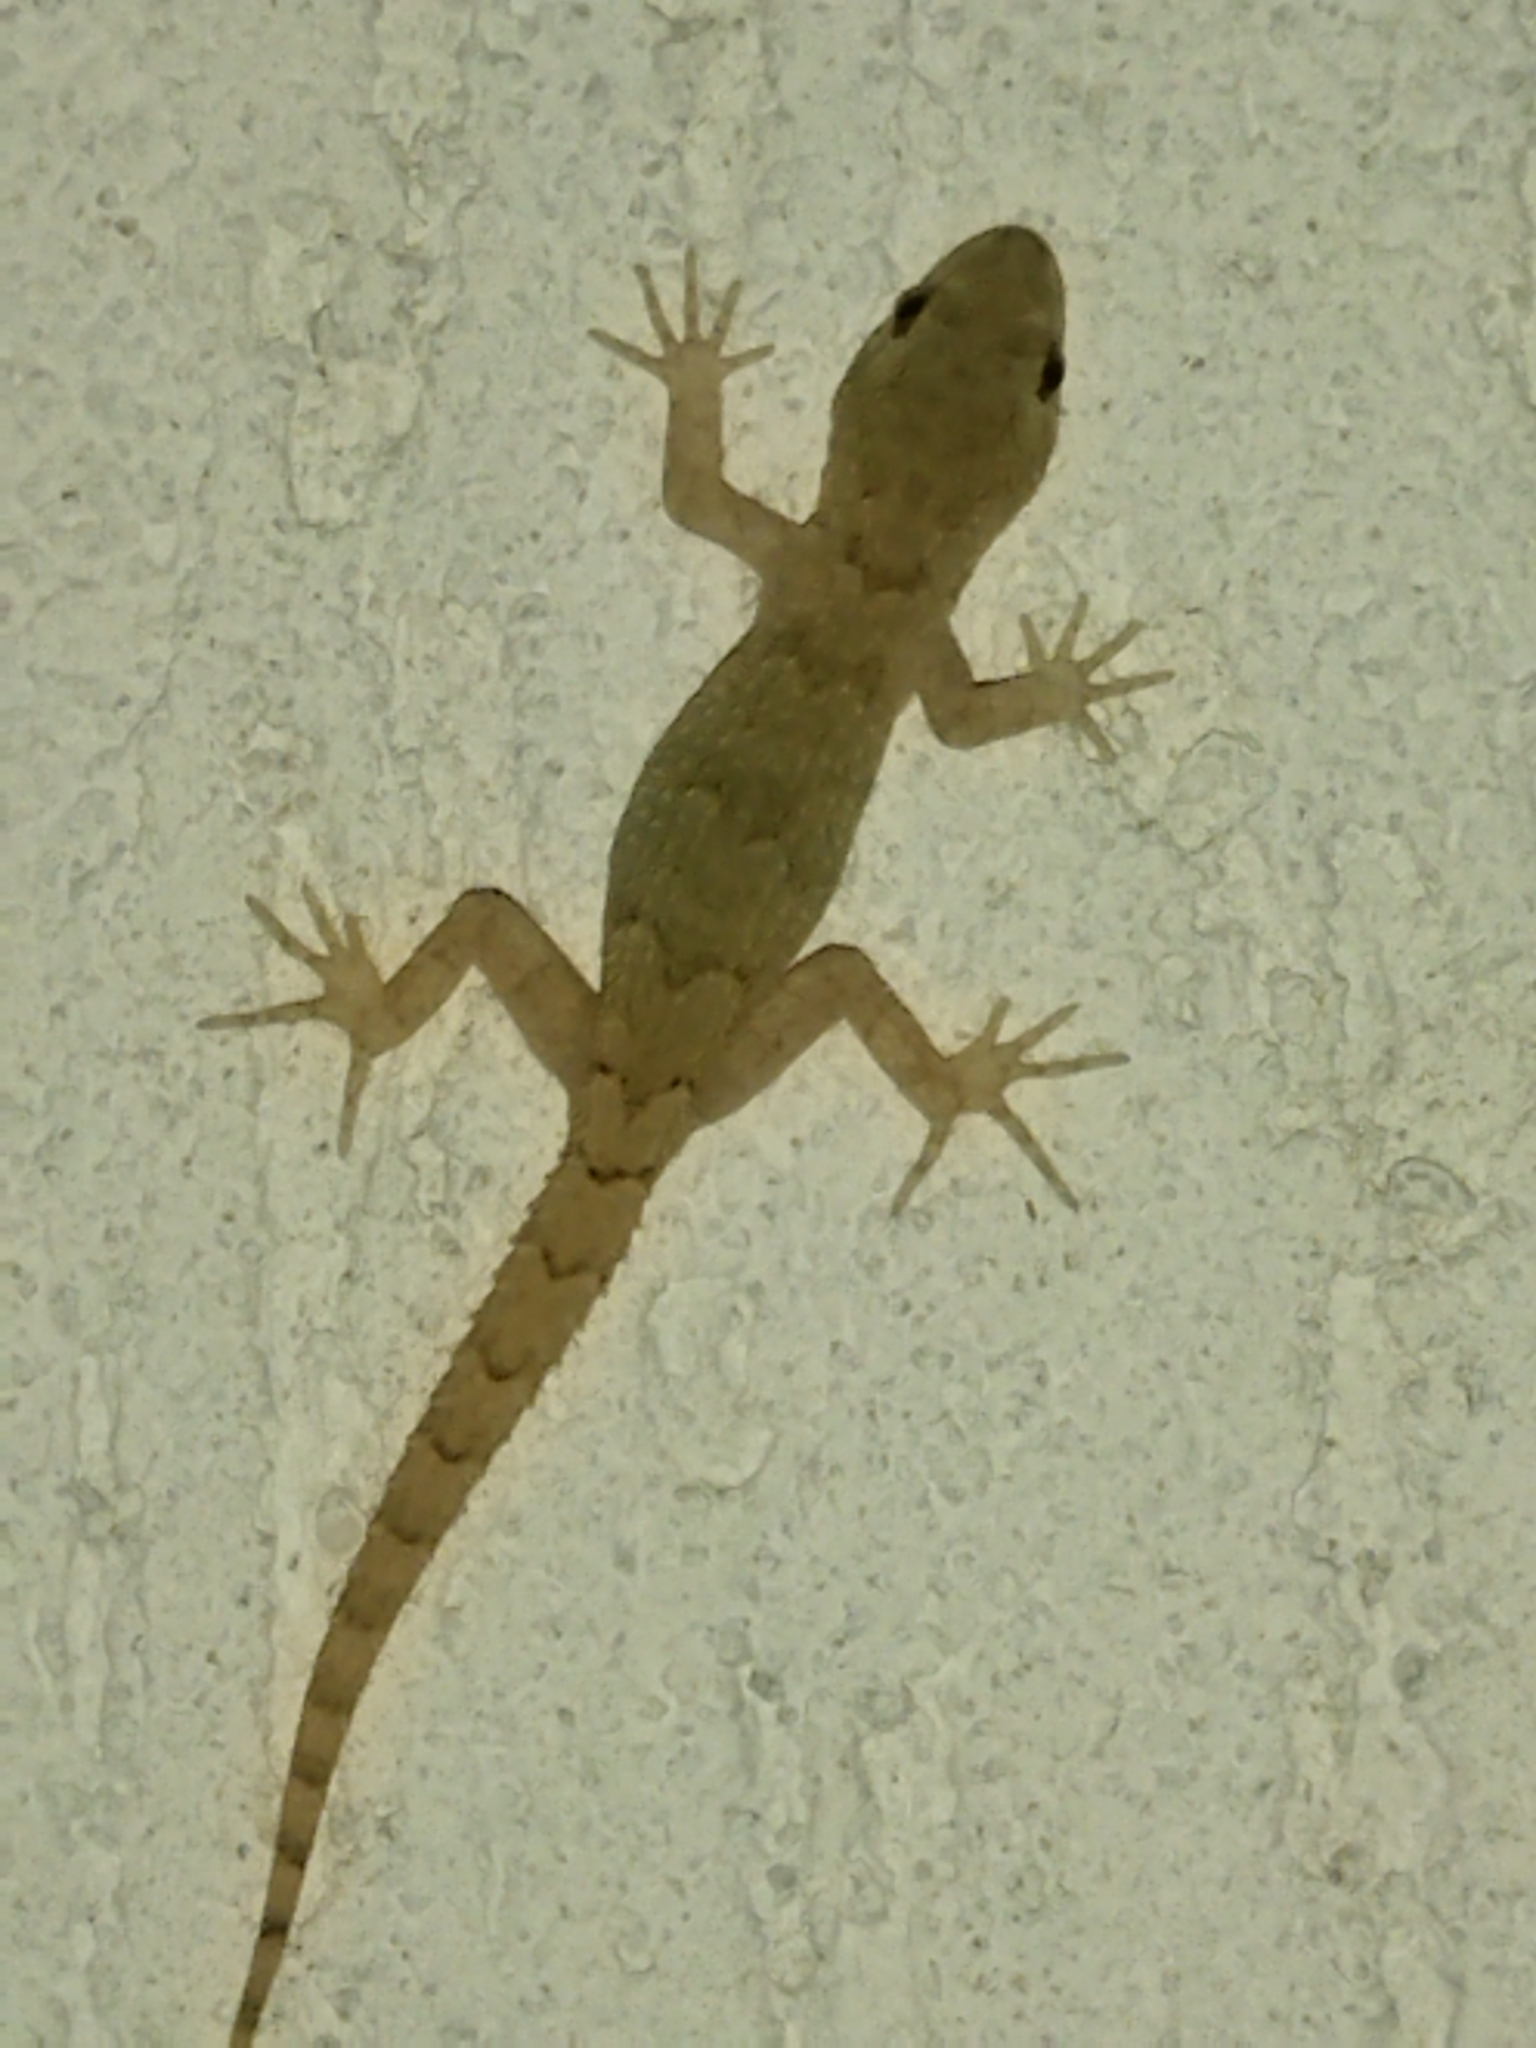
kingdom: Animalia
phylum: Chordata
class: Squamata
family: Gekkonidae
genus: Mediodactylus
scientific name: Mediodactylus kotschyi
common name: Kotschy's gecko
